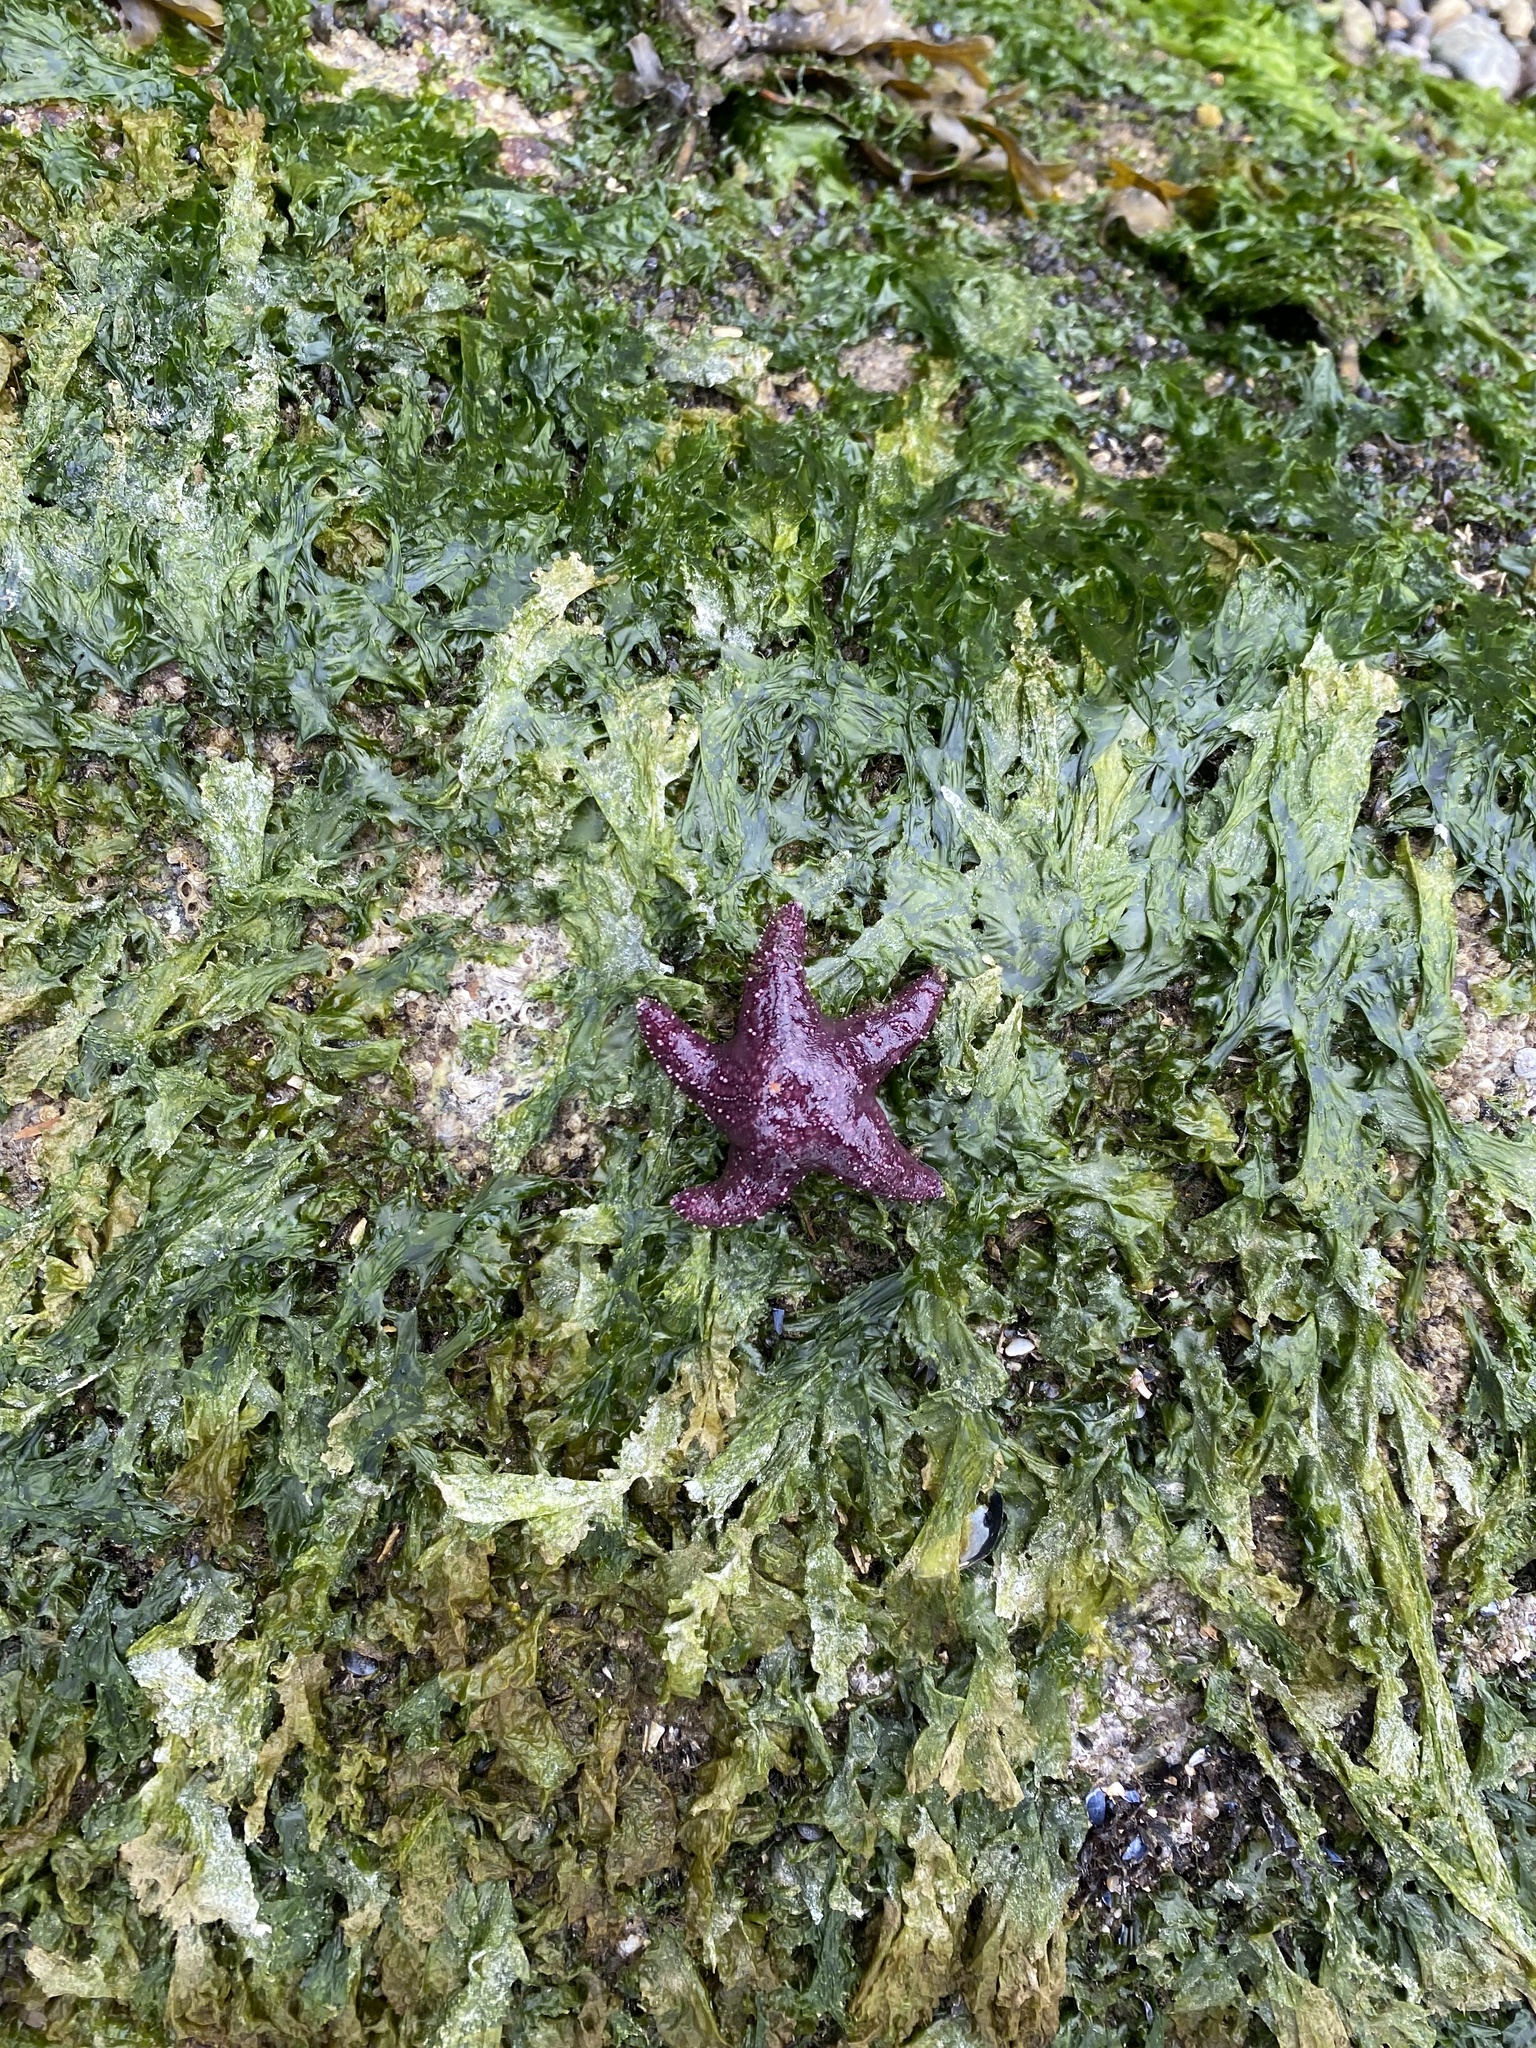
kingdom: Animalia
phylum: Echinodermata
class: Asteroidea
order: Forcipulatida
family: Asteriidae
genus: Pisaster
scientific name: Pisaster ochraceus
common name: Ochre stars
